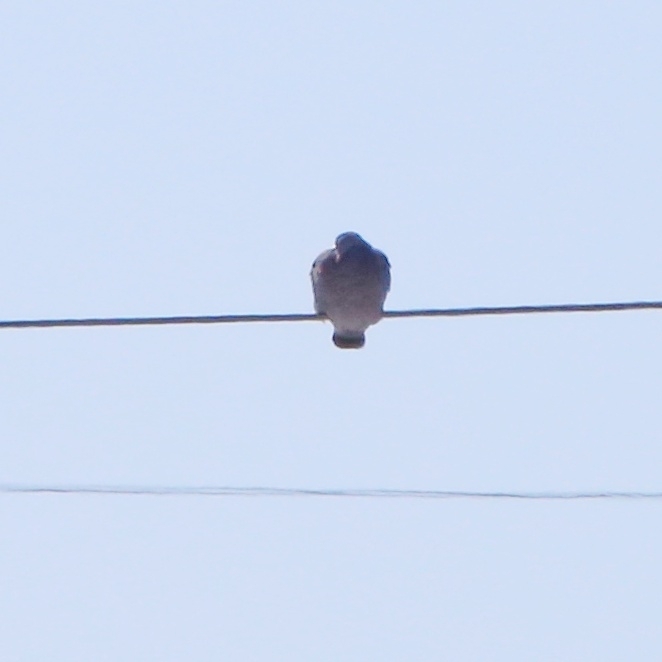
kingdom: Animalia
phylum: Chordata
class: Aves
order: Columbiformes
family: Columbidae
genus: Columba
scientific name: Columba oenas
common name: Stock dove
